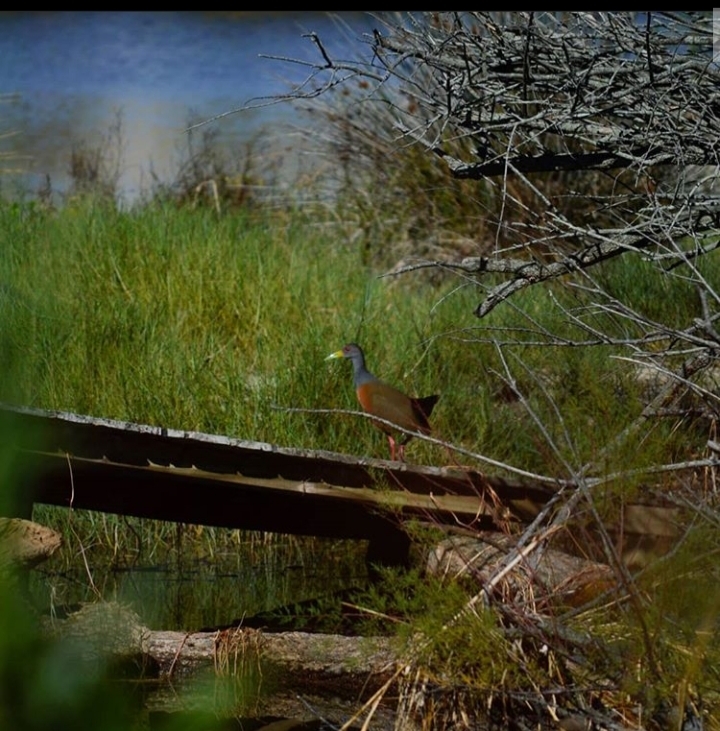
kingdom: Animalia
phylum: Chordata
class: Aves
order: Gruiformes
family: Rallidae
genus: Aramides
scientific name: Aramides cajanea
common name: Gray-necked wood-rail
